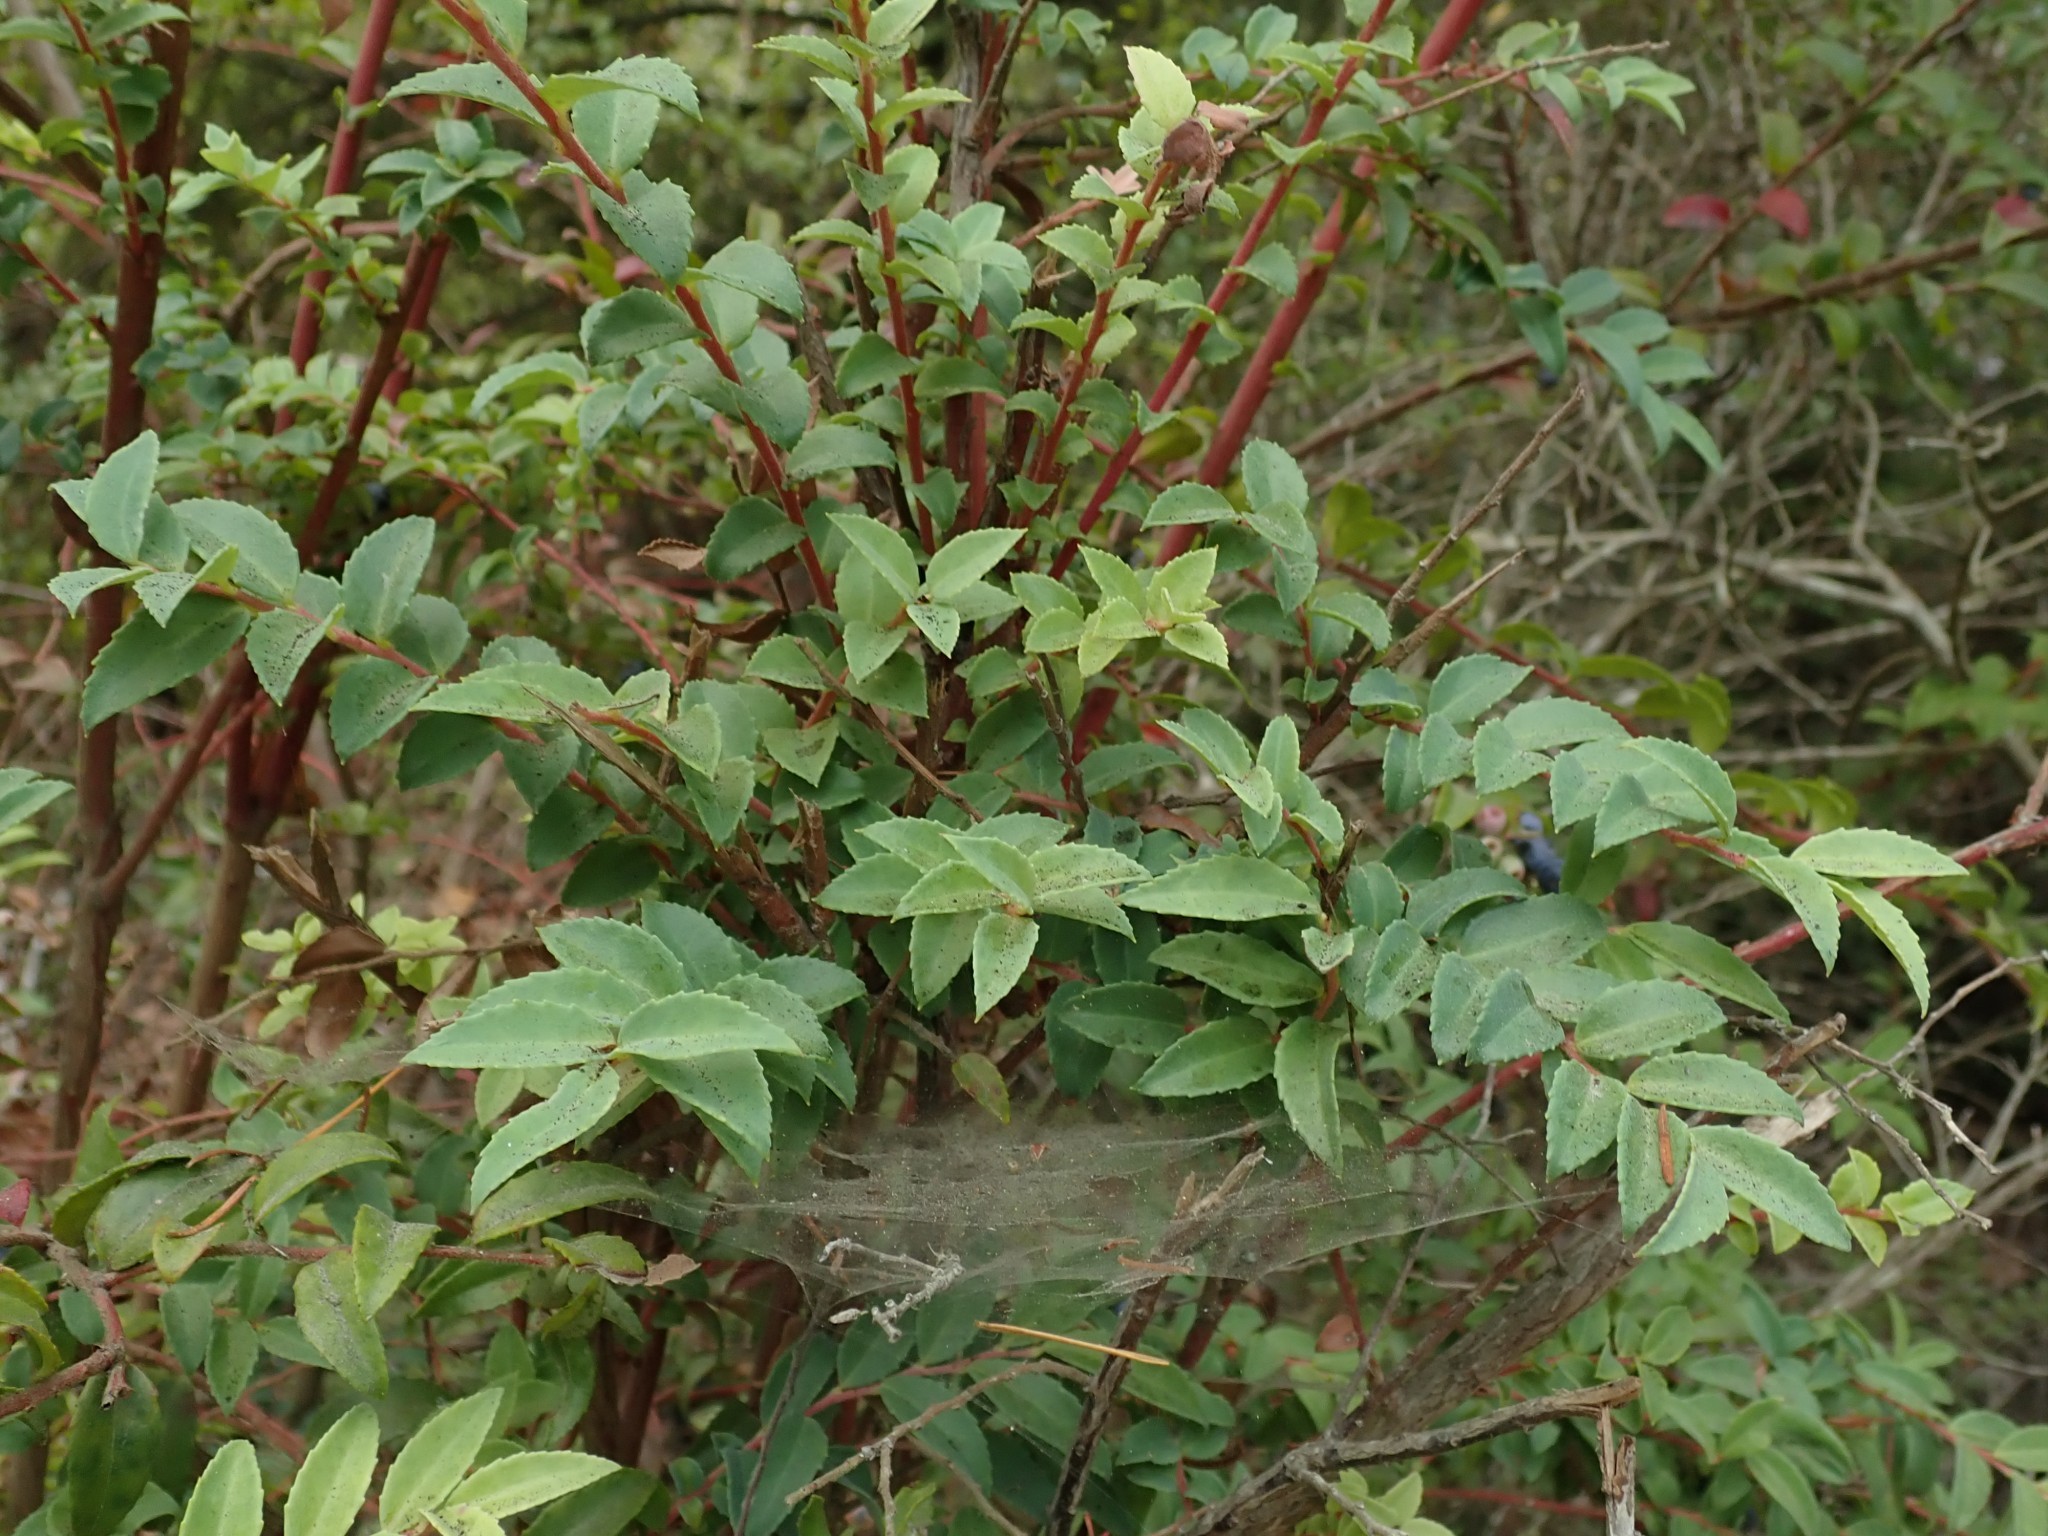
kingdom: Plantae
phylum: Tracheophyta
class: Magnoliopsida
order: Ericales
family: Ericaceae
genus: Vaccinium
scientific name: Vaccinium ovatum
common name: California-huckleberry
